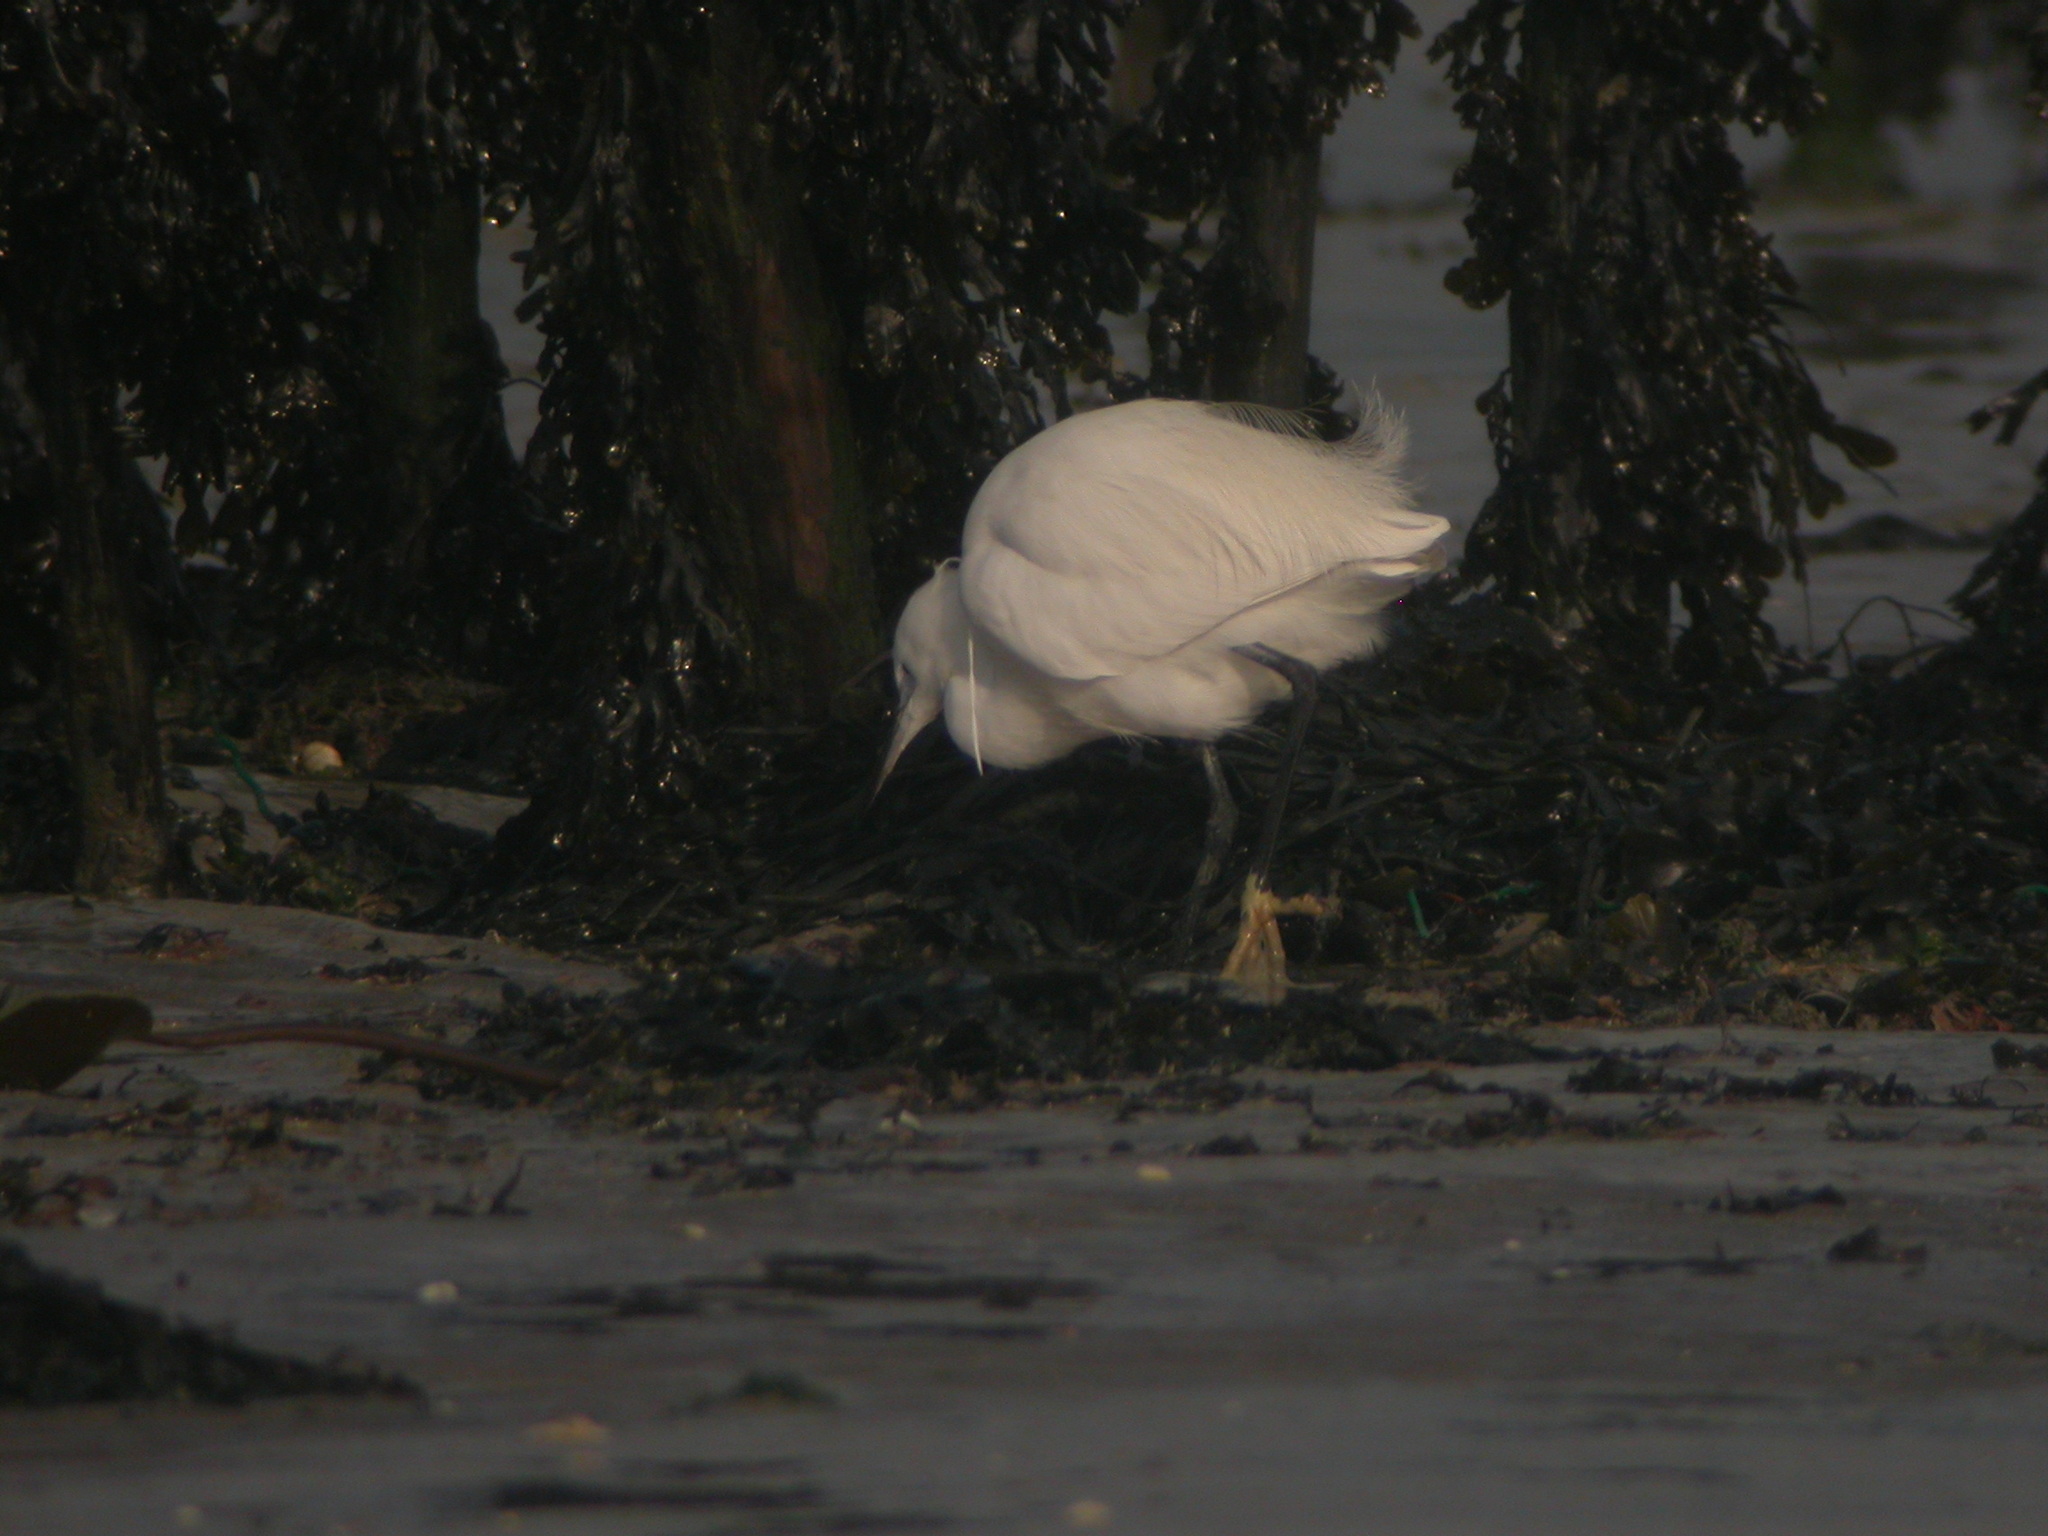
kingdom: Animalia
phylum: Chordata
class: Aves
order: Pelecaniformes
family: Ardeidae
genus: Egretta
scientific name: Egretta garzetta
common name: Little egret
